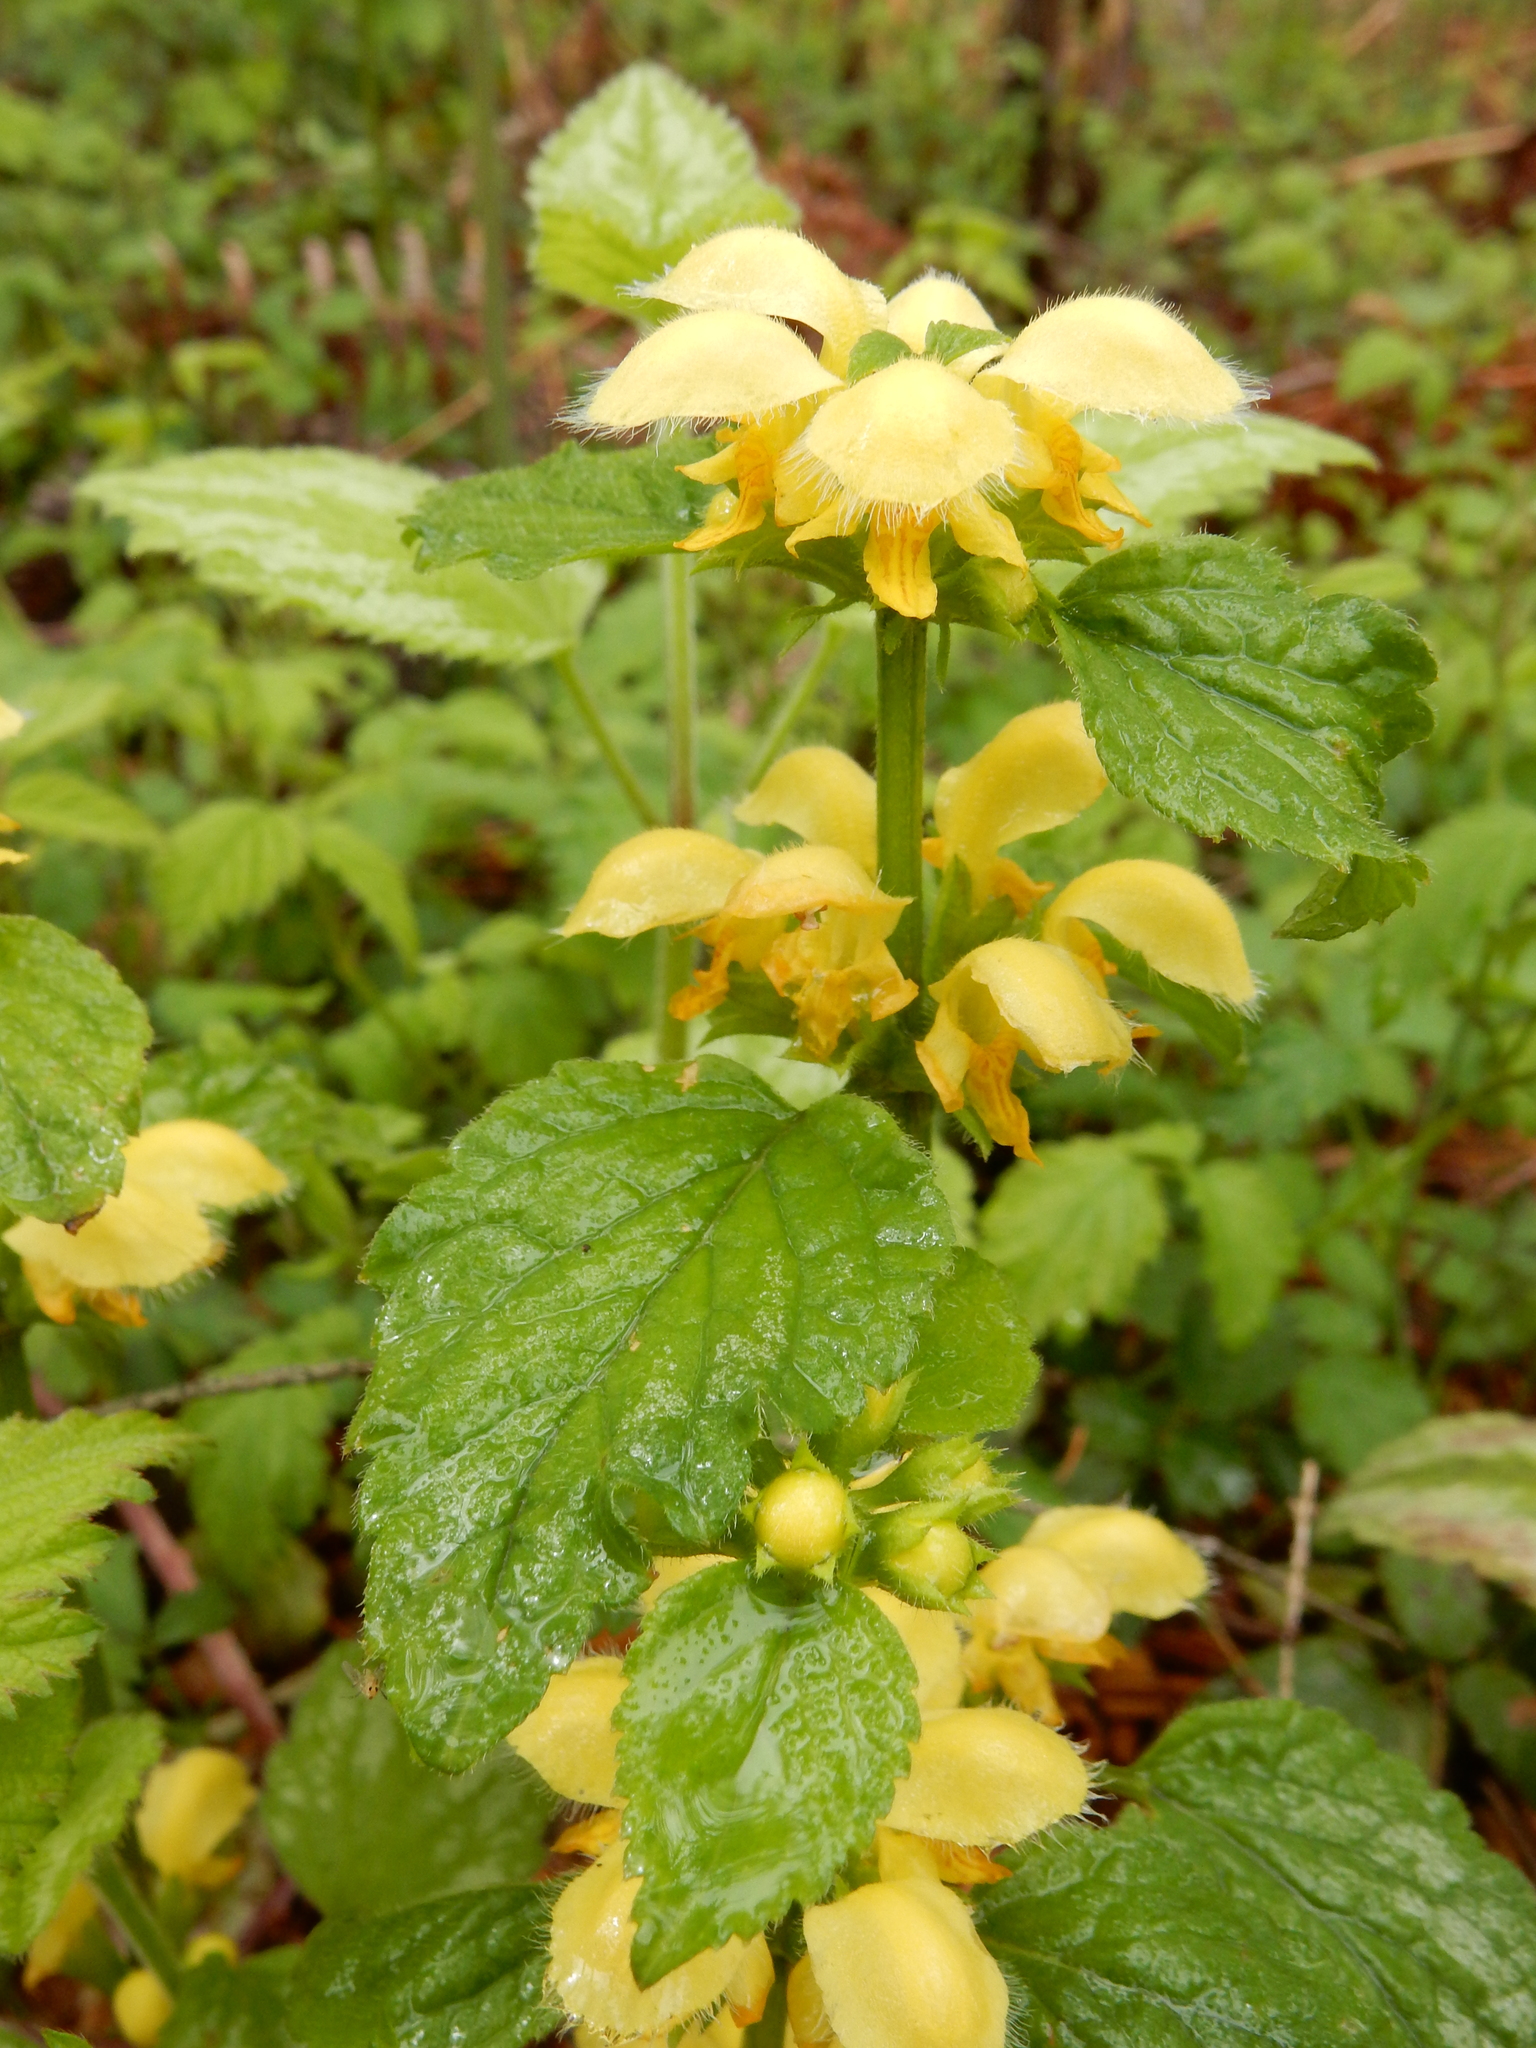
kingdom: Plantae
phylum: Tracheophyta
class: Magnoliopsida
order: Lamiales
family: Lamiaceae
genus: Lamium
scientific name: Lamium galeobdolon
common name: Yellow archangel
